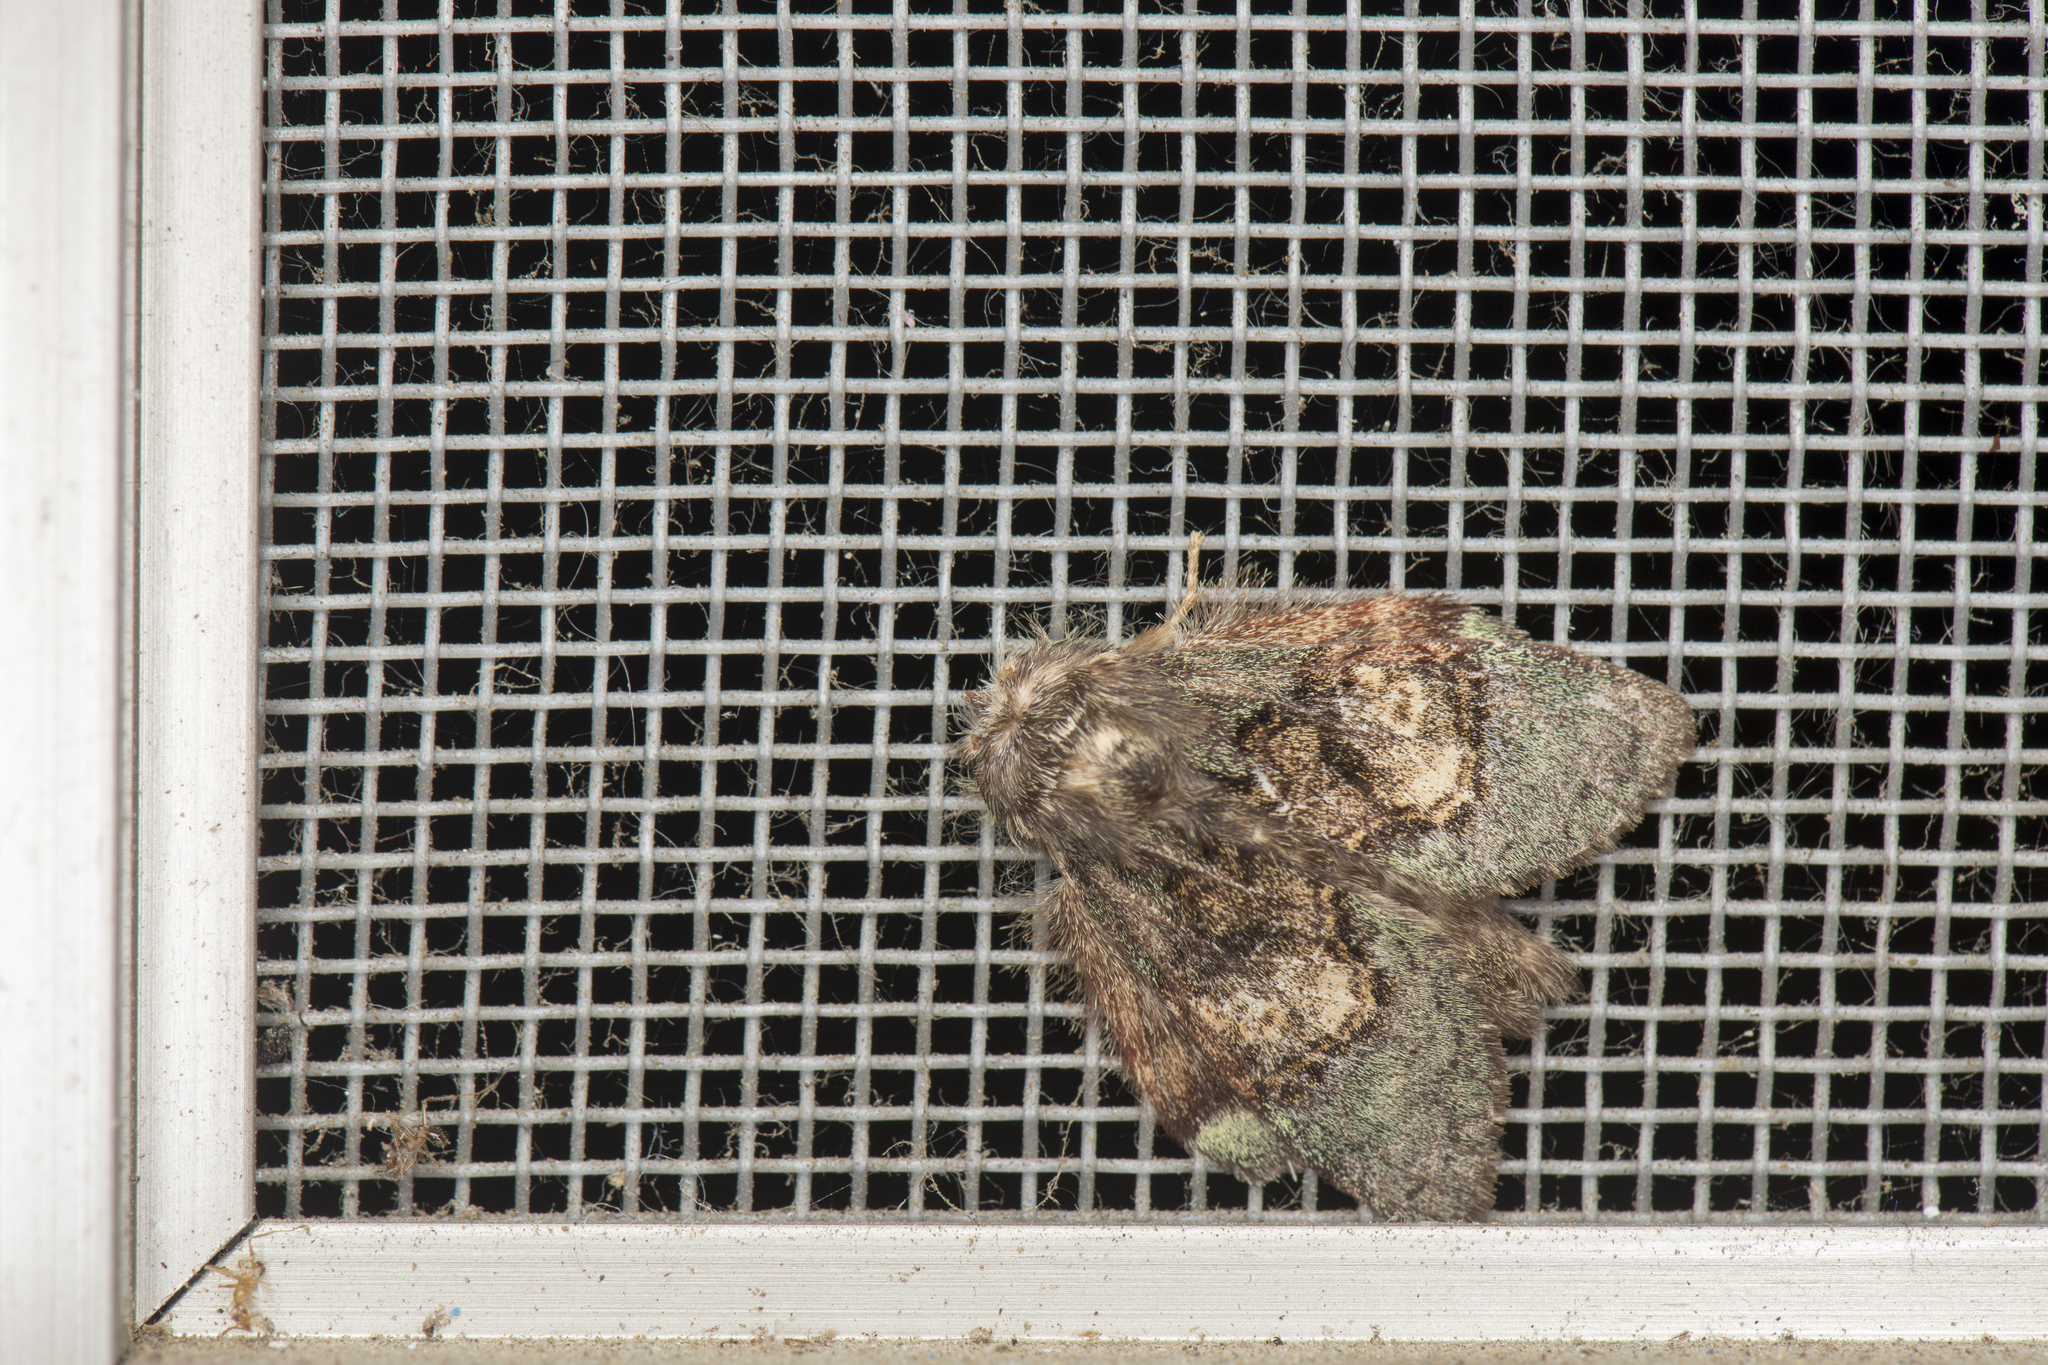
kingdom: Animalia
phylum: Arthropoda
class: Insecta
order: Lepidoptera
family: Notodontidae
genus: Syntypistis
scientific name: Syntypistis pallidifascia
